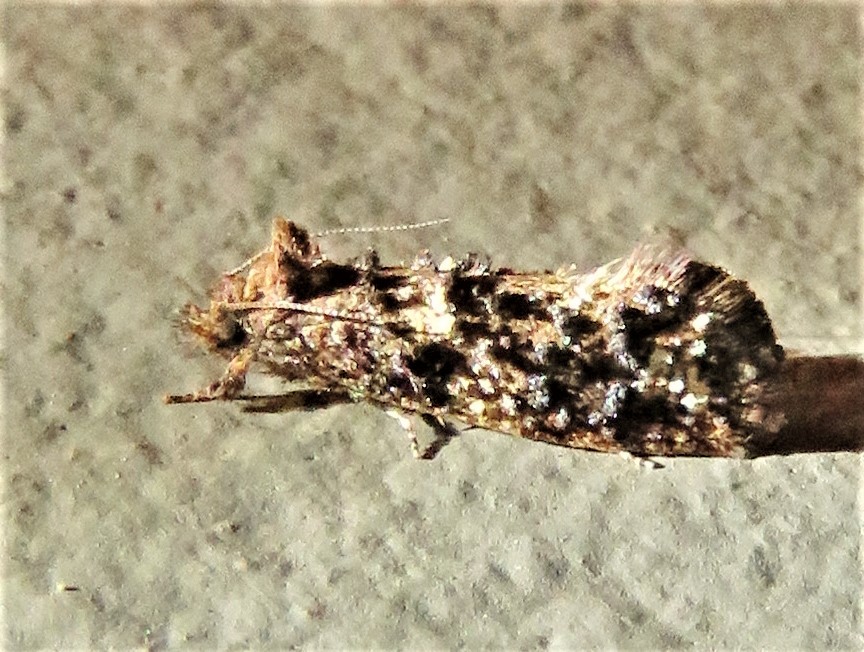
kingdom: Animalia
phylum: Arthropoda
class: Insecta
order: Lepidoptera
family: Tineidae
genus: Acrolophus
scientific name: Acrolophus cressoni
